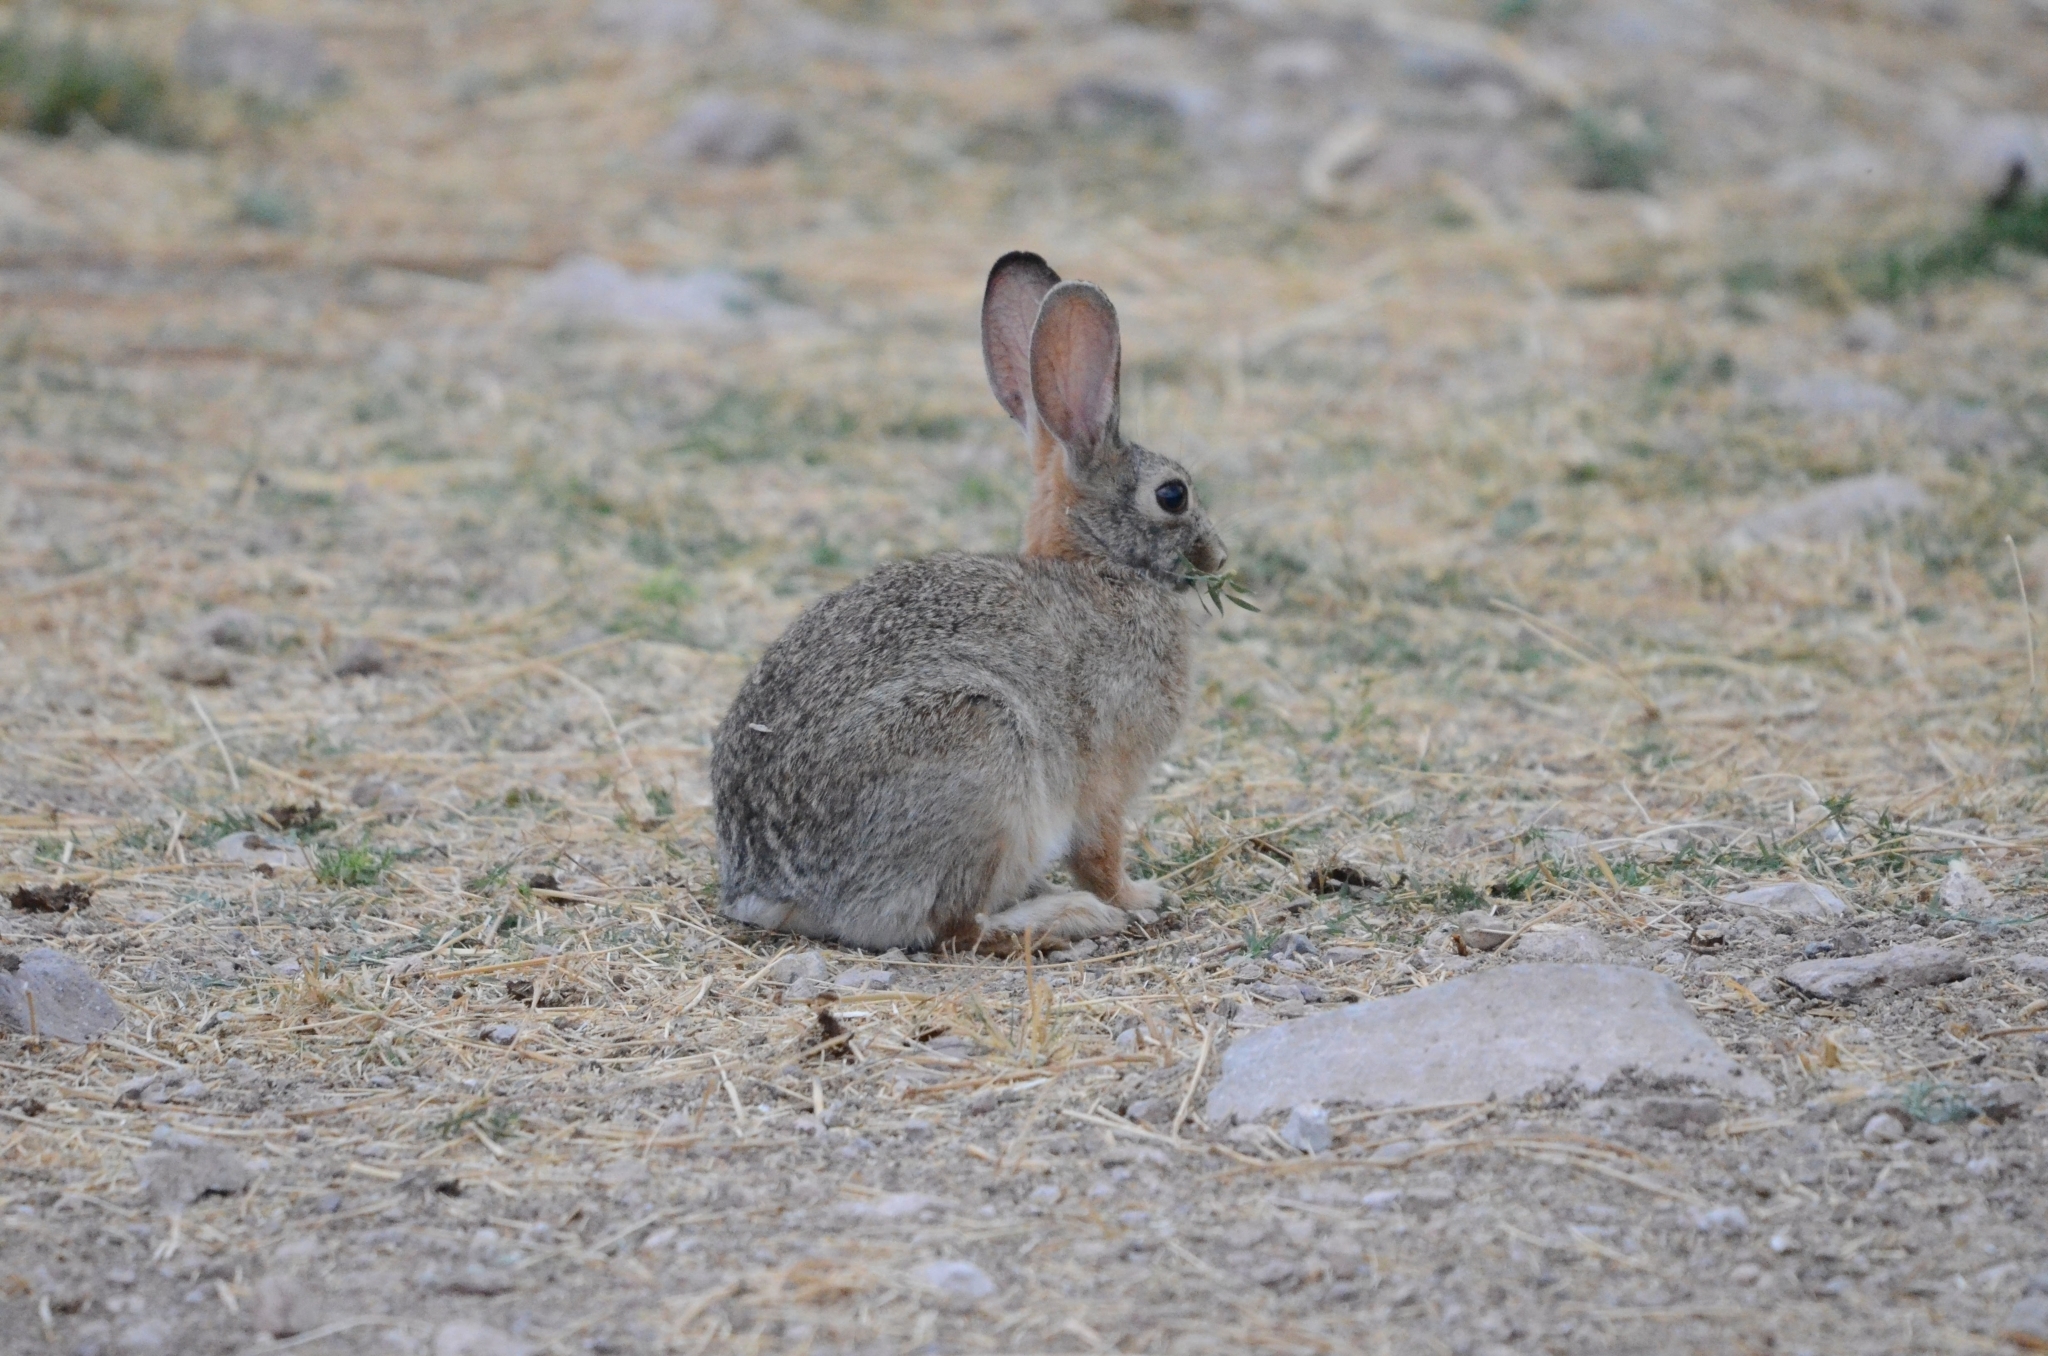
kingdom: Animalia
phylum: Chordata
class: Mammalia
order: Lagomorpha
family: Leporidae
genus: Sylvilagus
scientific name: Sylvilagus audubonii
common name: Desert cottontail
